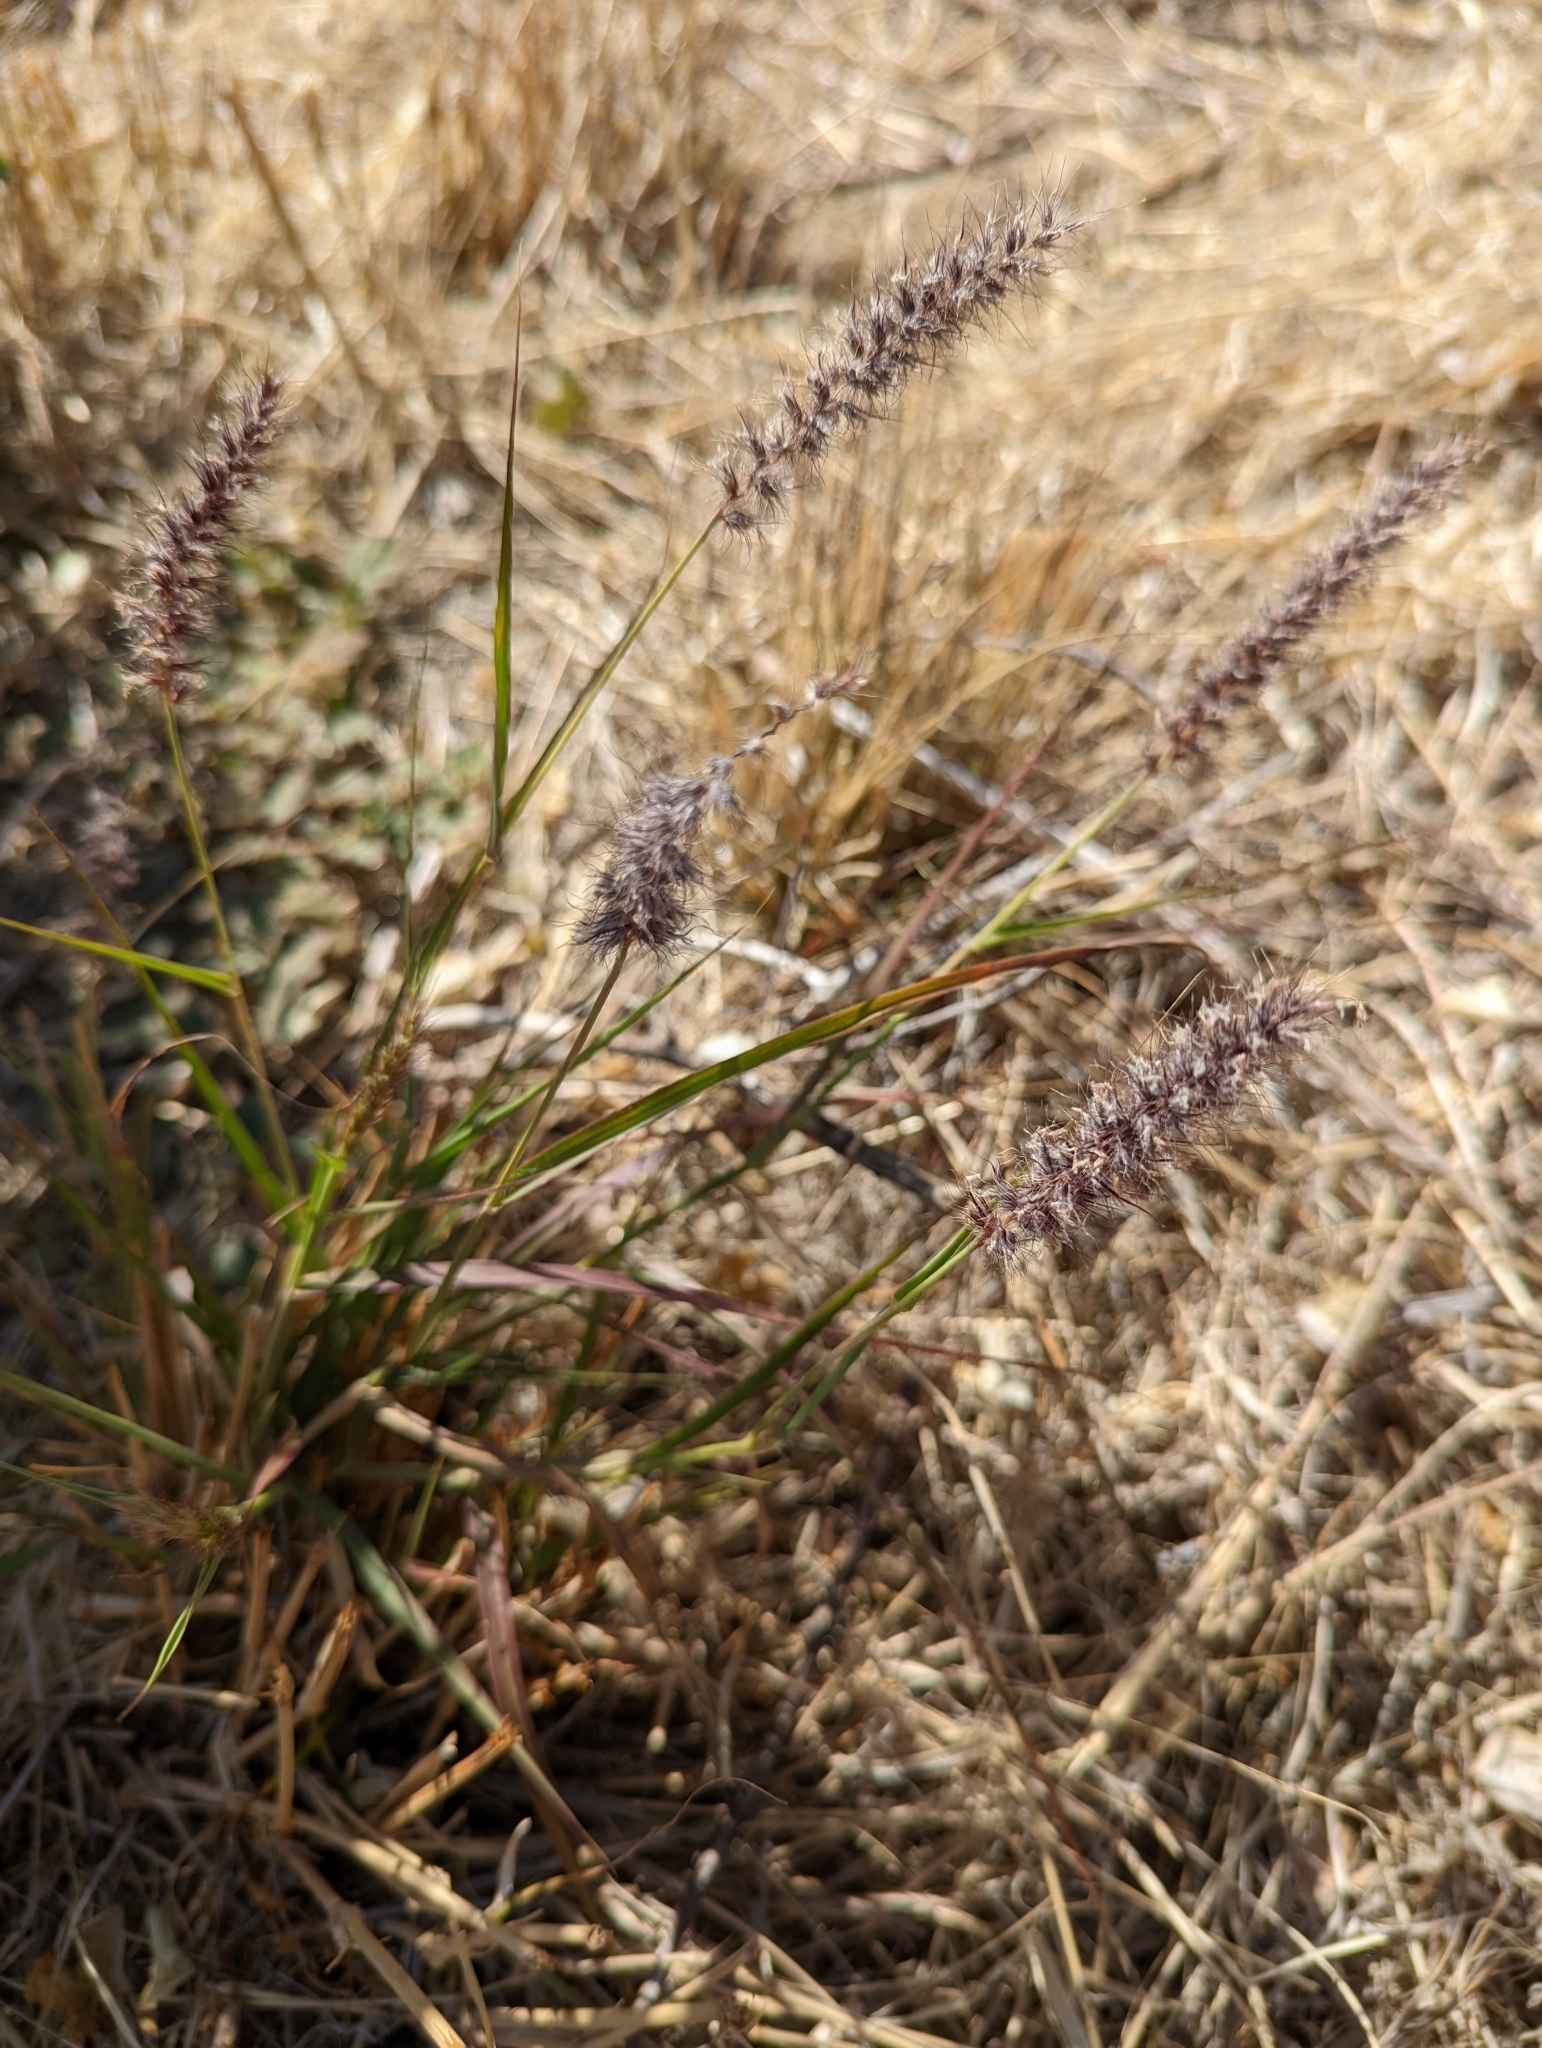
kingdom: Plantae
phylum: Tracheophyta
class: Liliopsida
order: Poales
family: Poaceae
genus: Cenchrus
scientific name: Cenchrus ciliaris
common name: Buffelgrass
